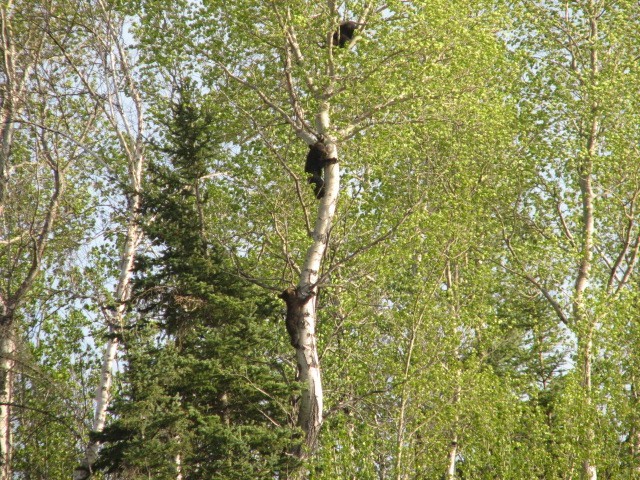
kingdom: Animalia
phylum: Chordata
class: Mammalia
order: Carnivora
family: Ursidae
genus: Ursus
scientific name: Ursus americanus
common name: American black bear
